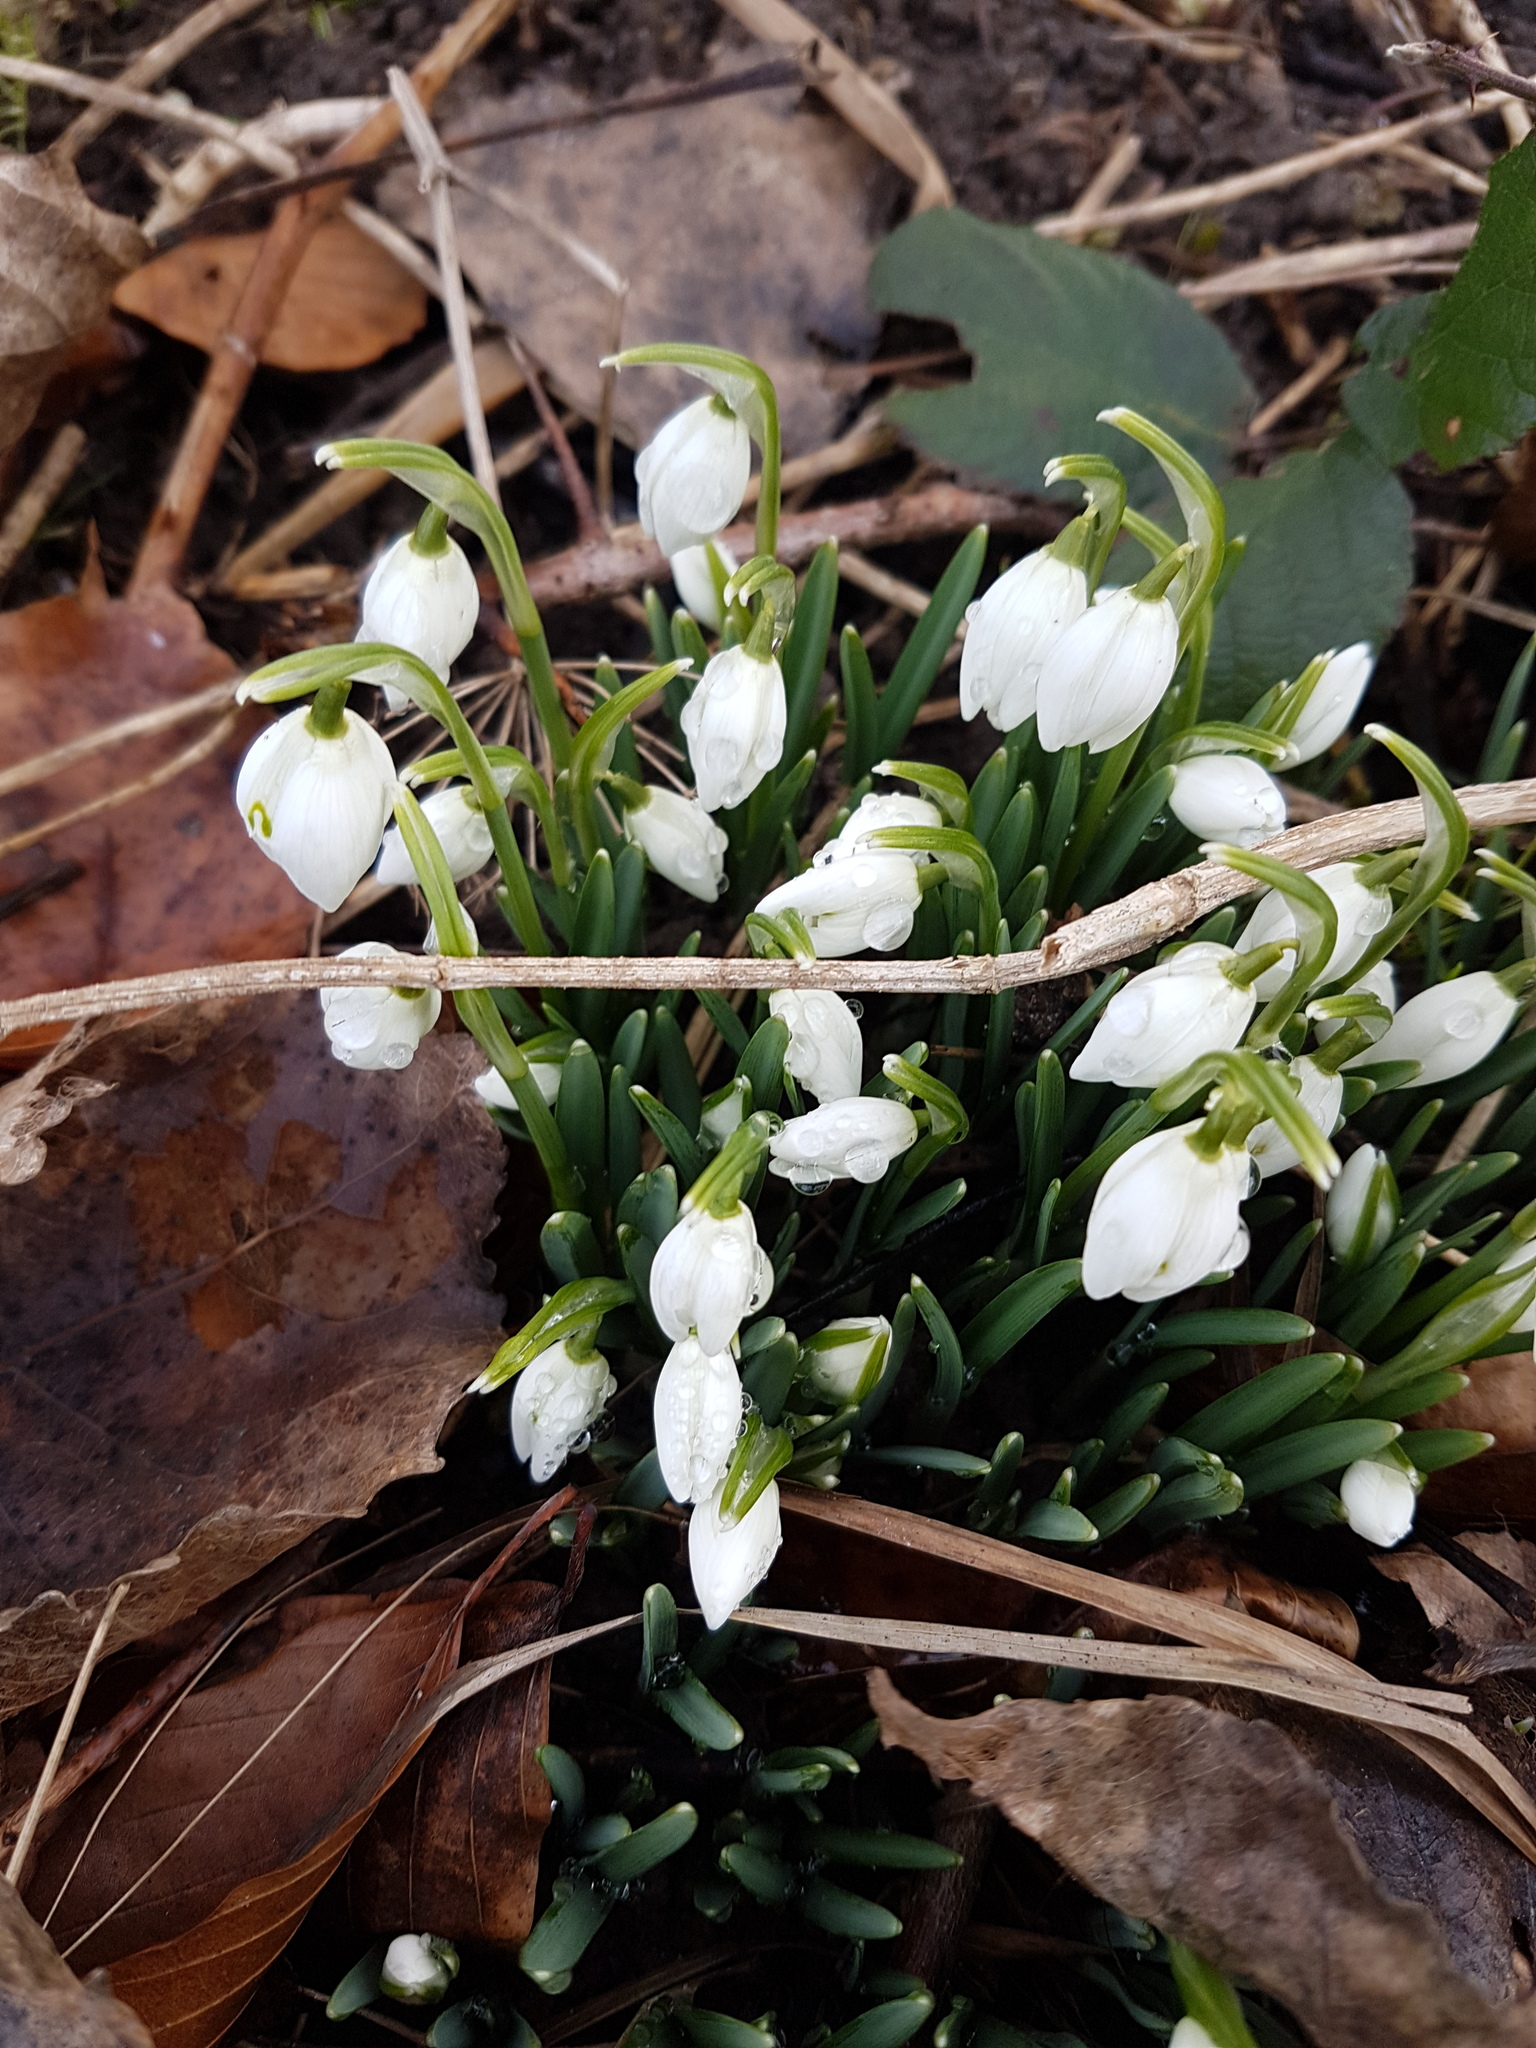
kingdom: Plantae
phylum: Tracheophyta
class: Liliopsida
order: Asparagales
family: Amaryllidaceae
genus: Galanthus
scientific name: Galanthus nivalis
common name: Snowdrop
